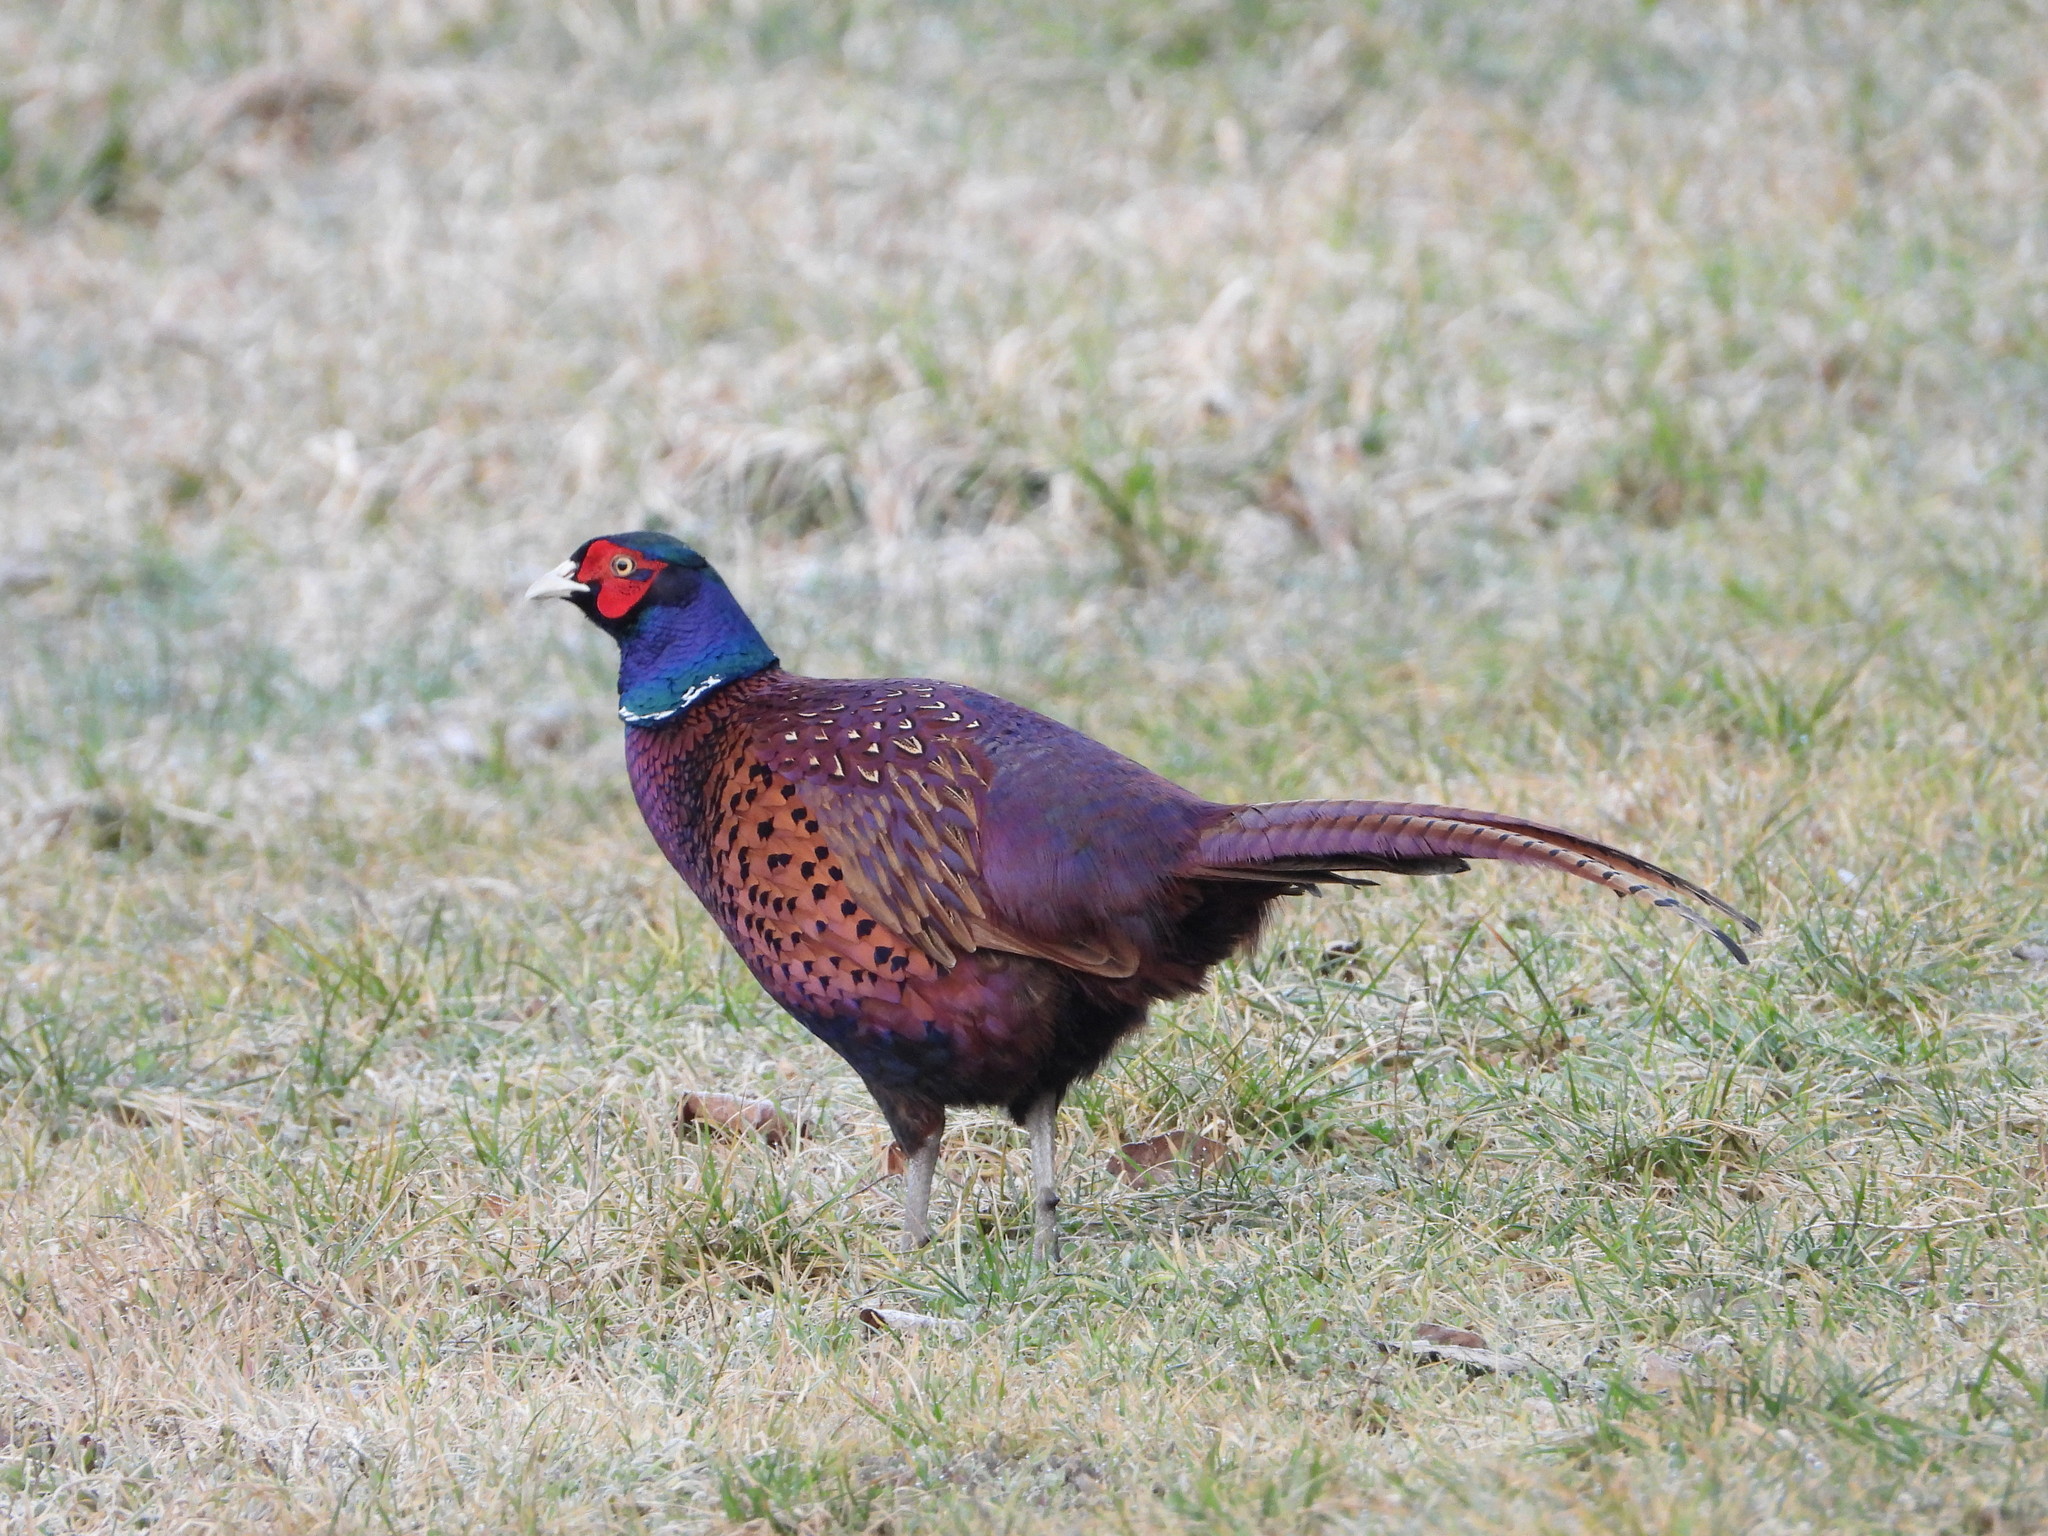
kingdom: Animalia
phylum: Chordata
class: Aves
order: Galliformes
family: Phasianidae
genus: Phasianus
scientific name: Phasianus colchicus
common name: Common pheasant
